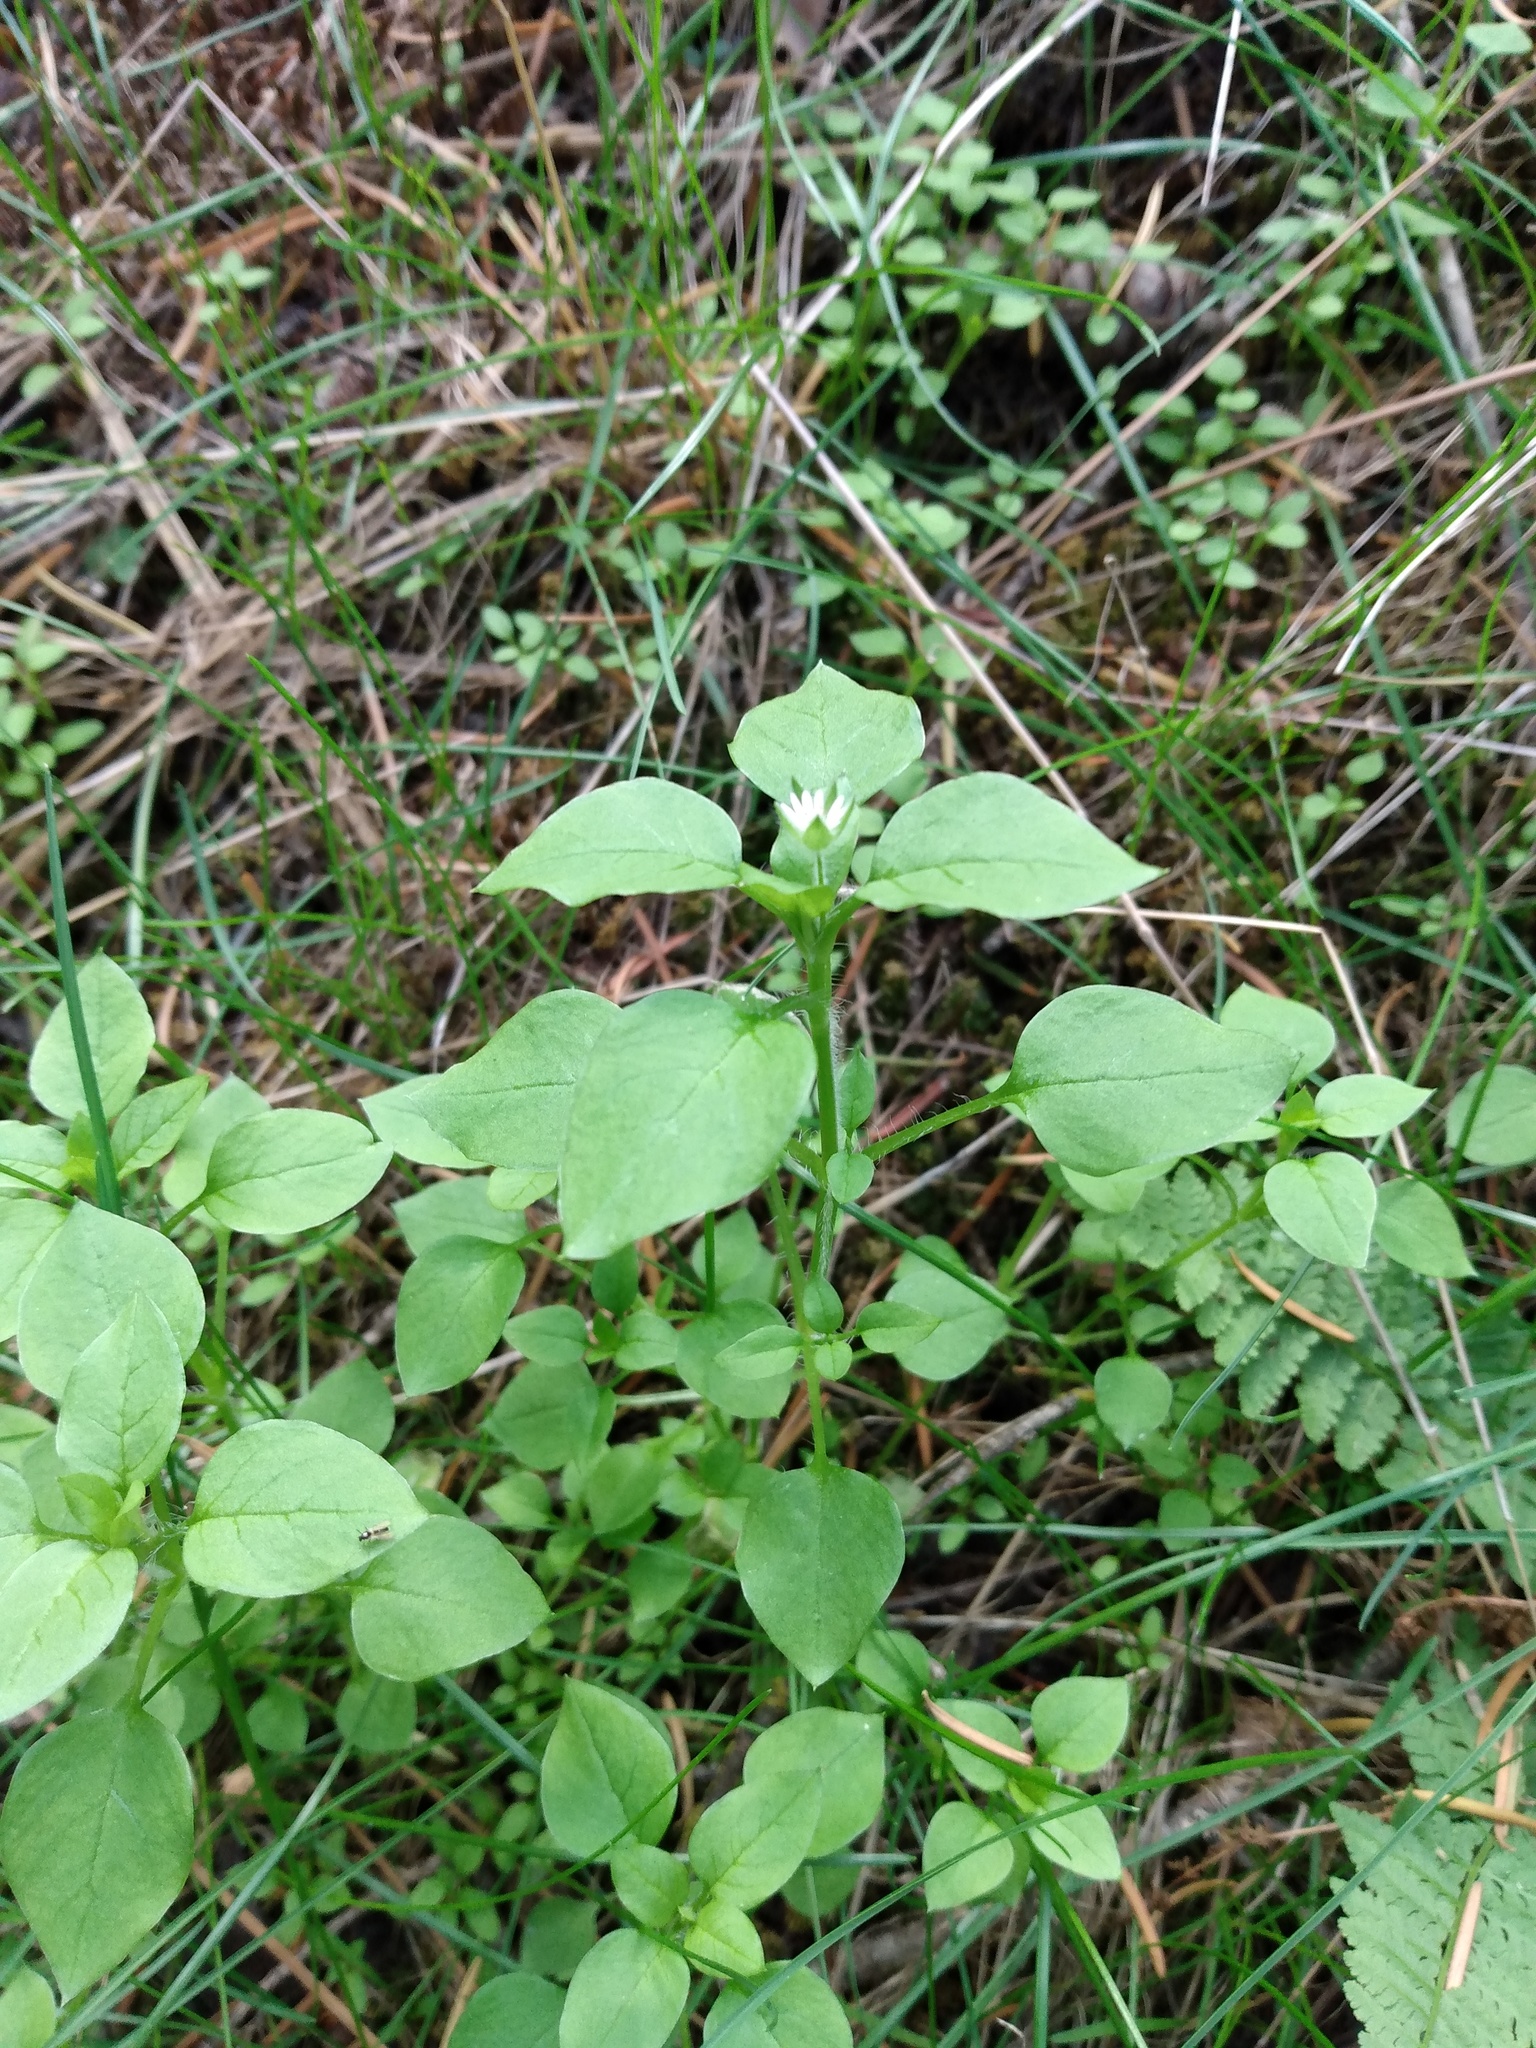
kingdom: Plantae
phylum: Tracheophyta
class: Magnoliopsida
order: Caryophyllales
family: Caryophyllaceae
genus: Stellaria
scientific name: Stellaria media
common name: Common chickweed
